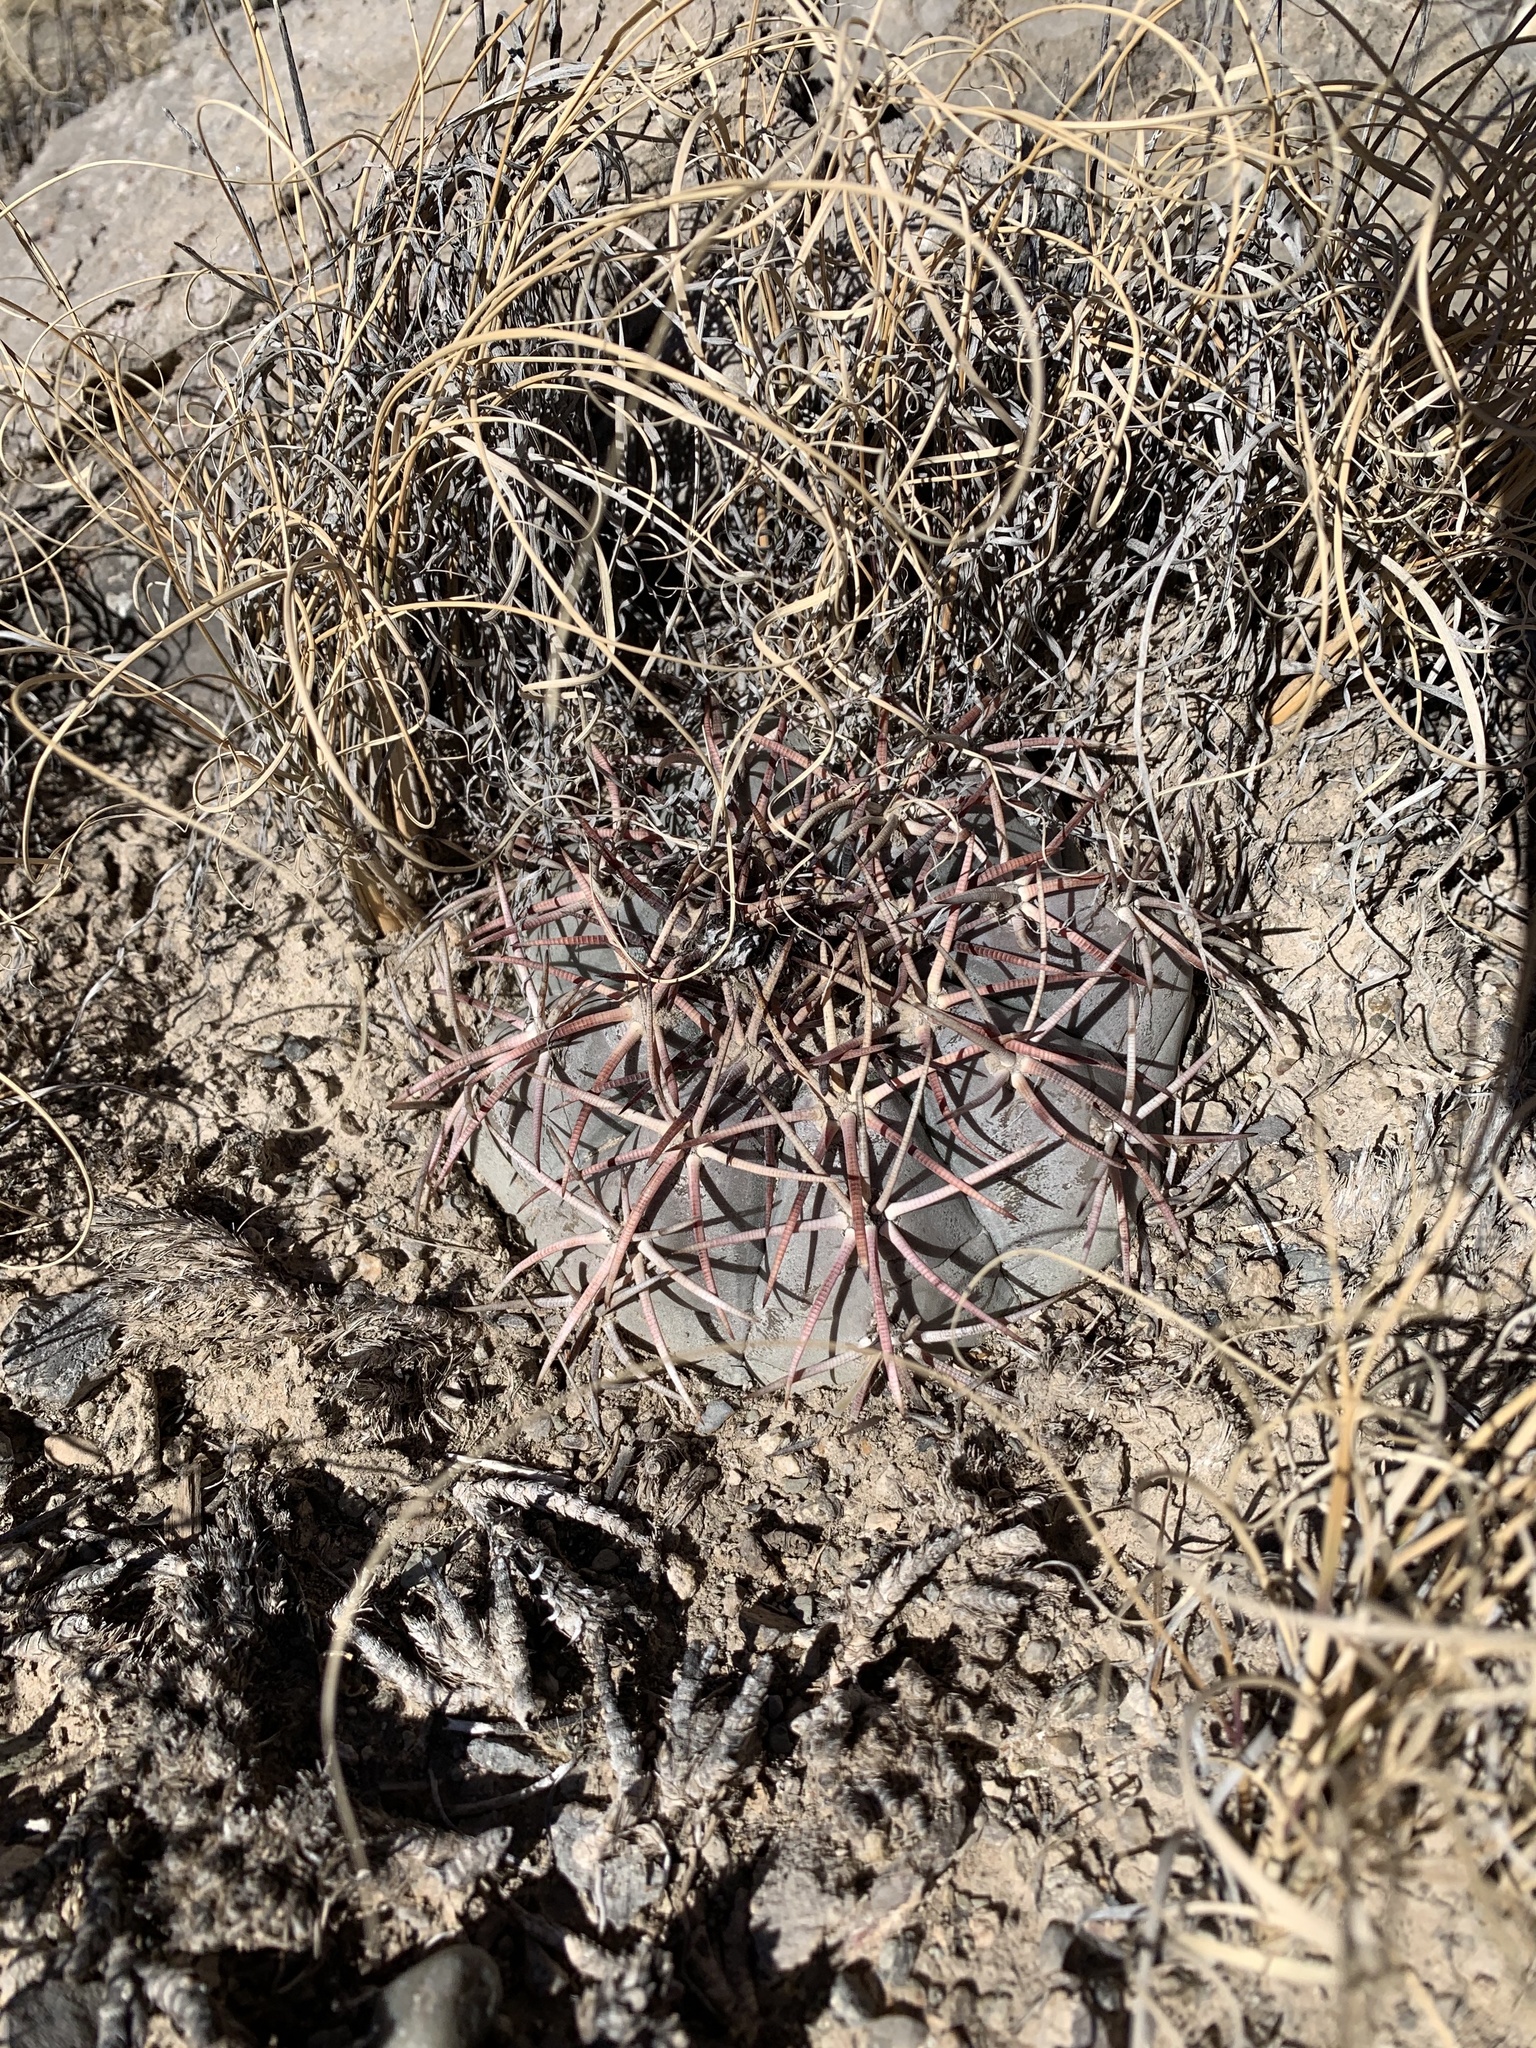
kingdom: Plantae
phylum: Tracheophyta
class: Magnoliopsida
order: Caryophyllales
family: Cactaceae
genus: Echinocactus
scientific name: Echinocactus horizonthalonius
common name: Devilshead
